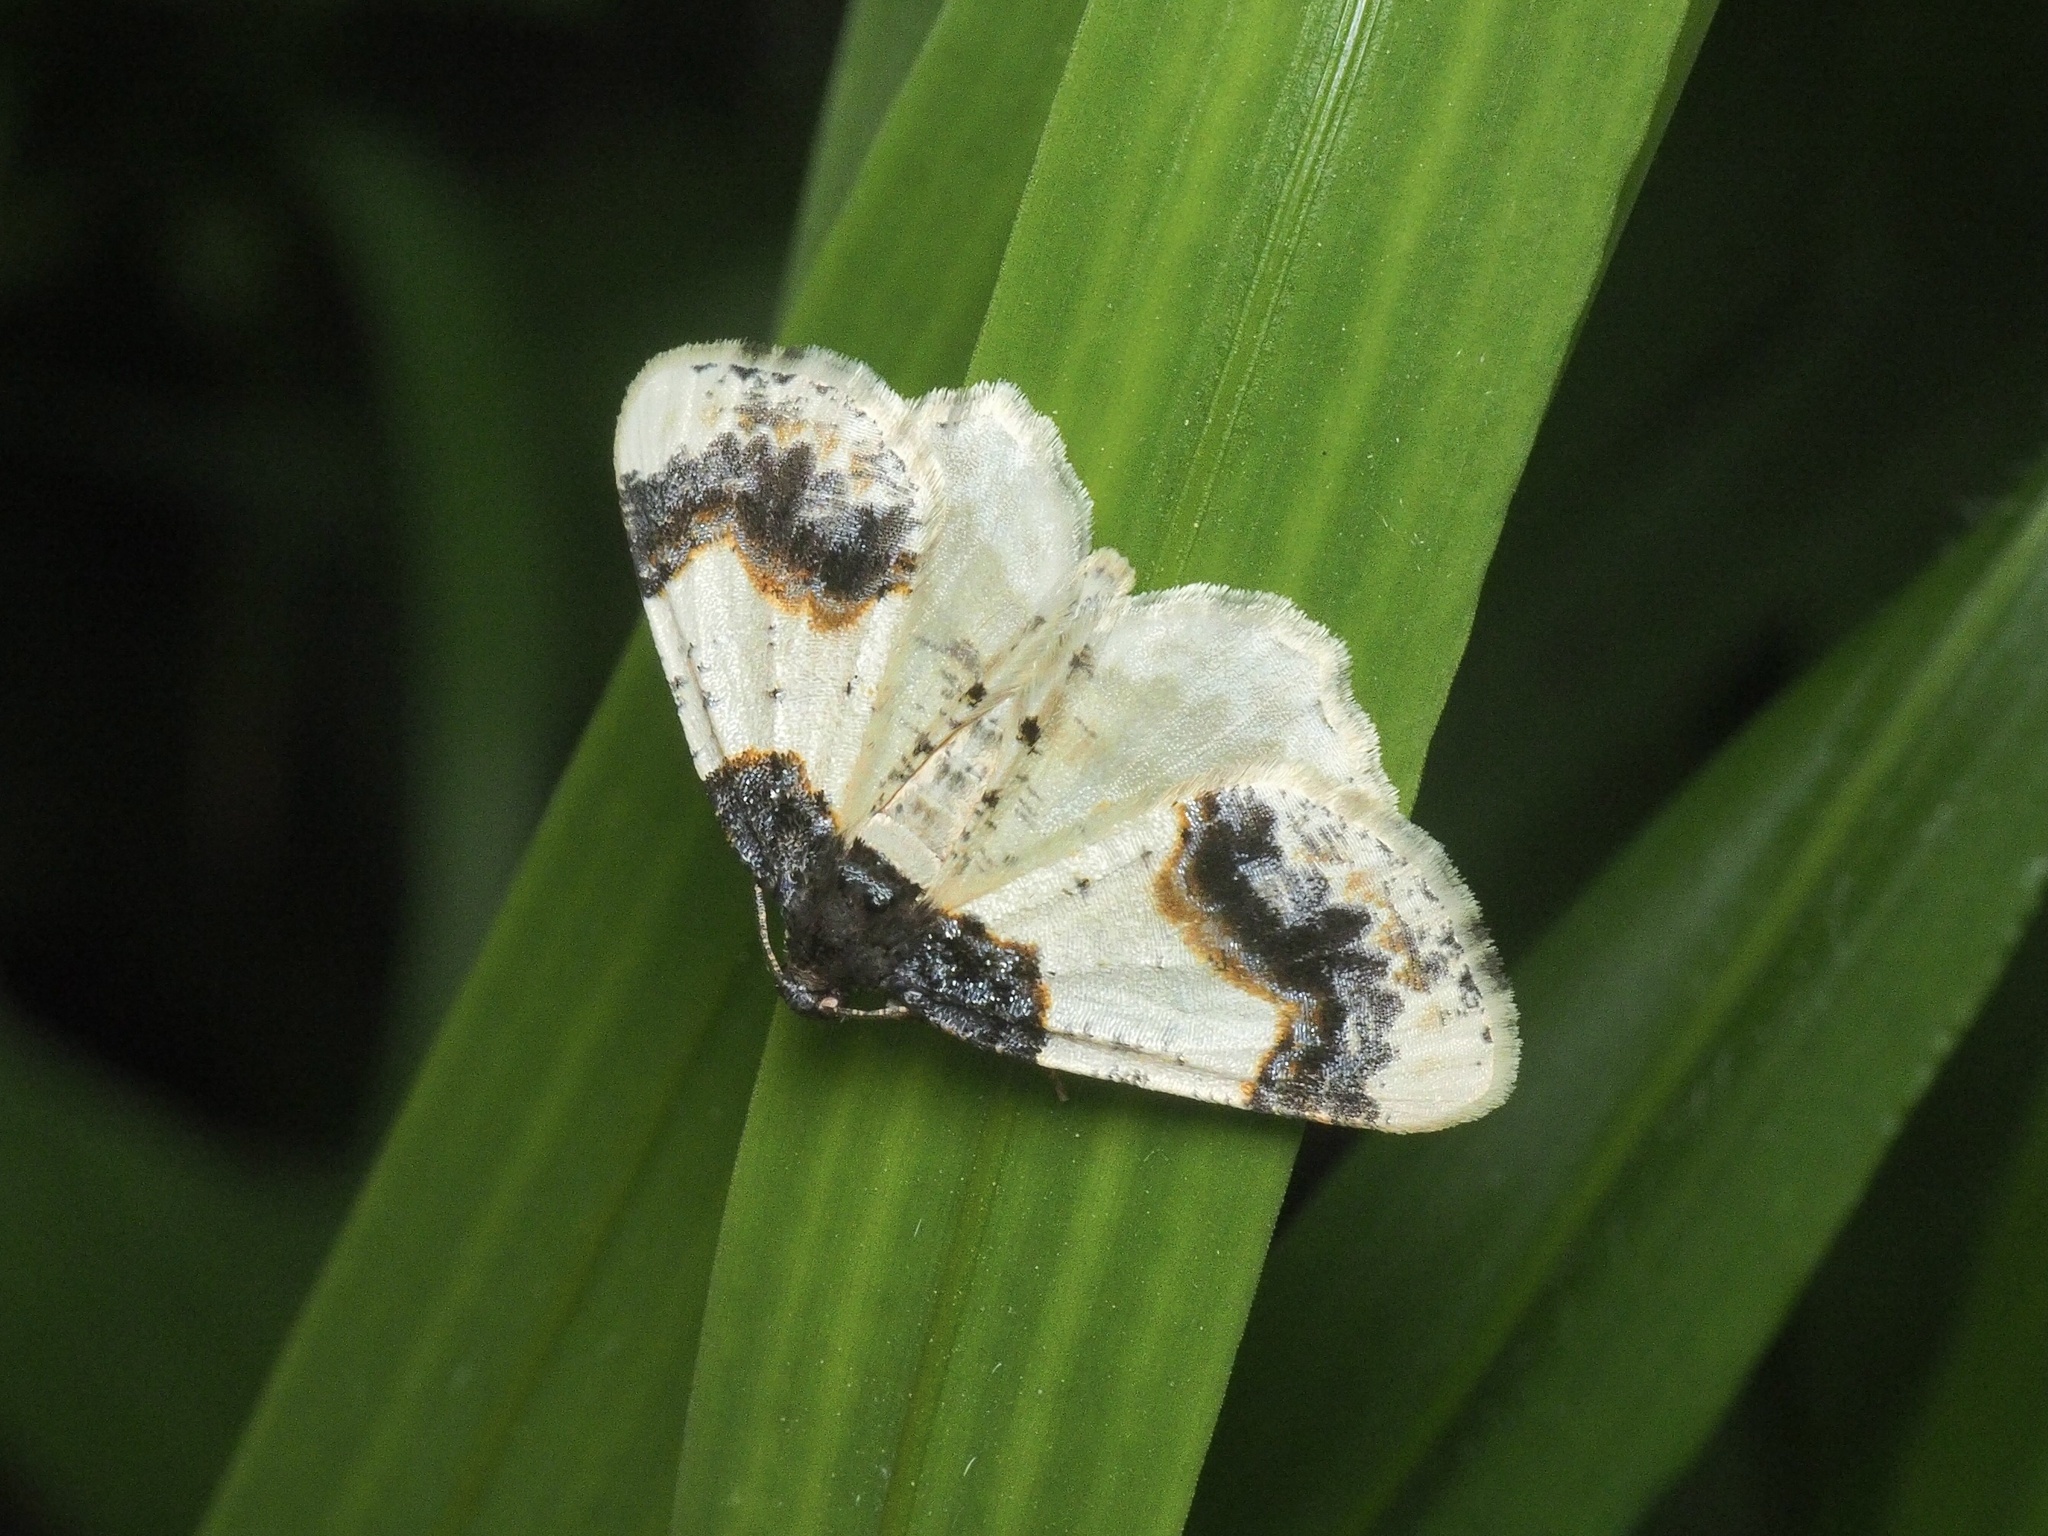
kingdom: Animalia
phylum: Arthropoda
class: Insecta
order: Lepidoptera
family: Geometridae
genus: Ligdia
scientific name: Ligdia adustata
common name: Scorched carpet
